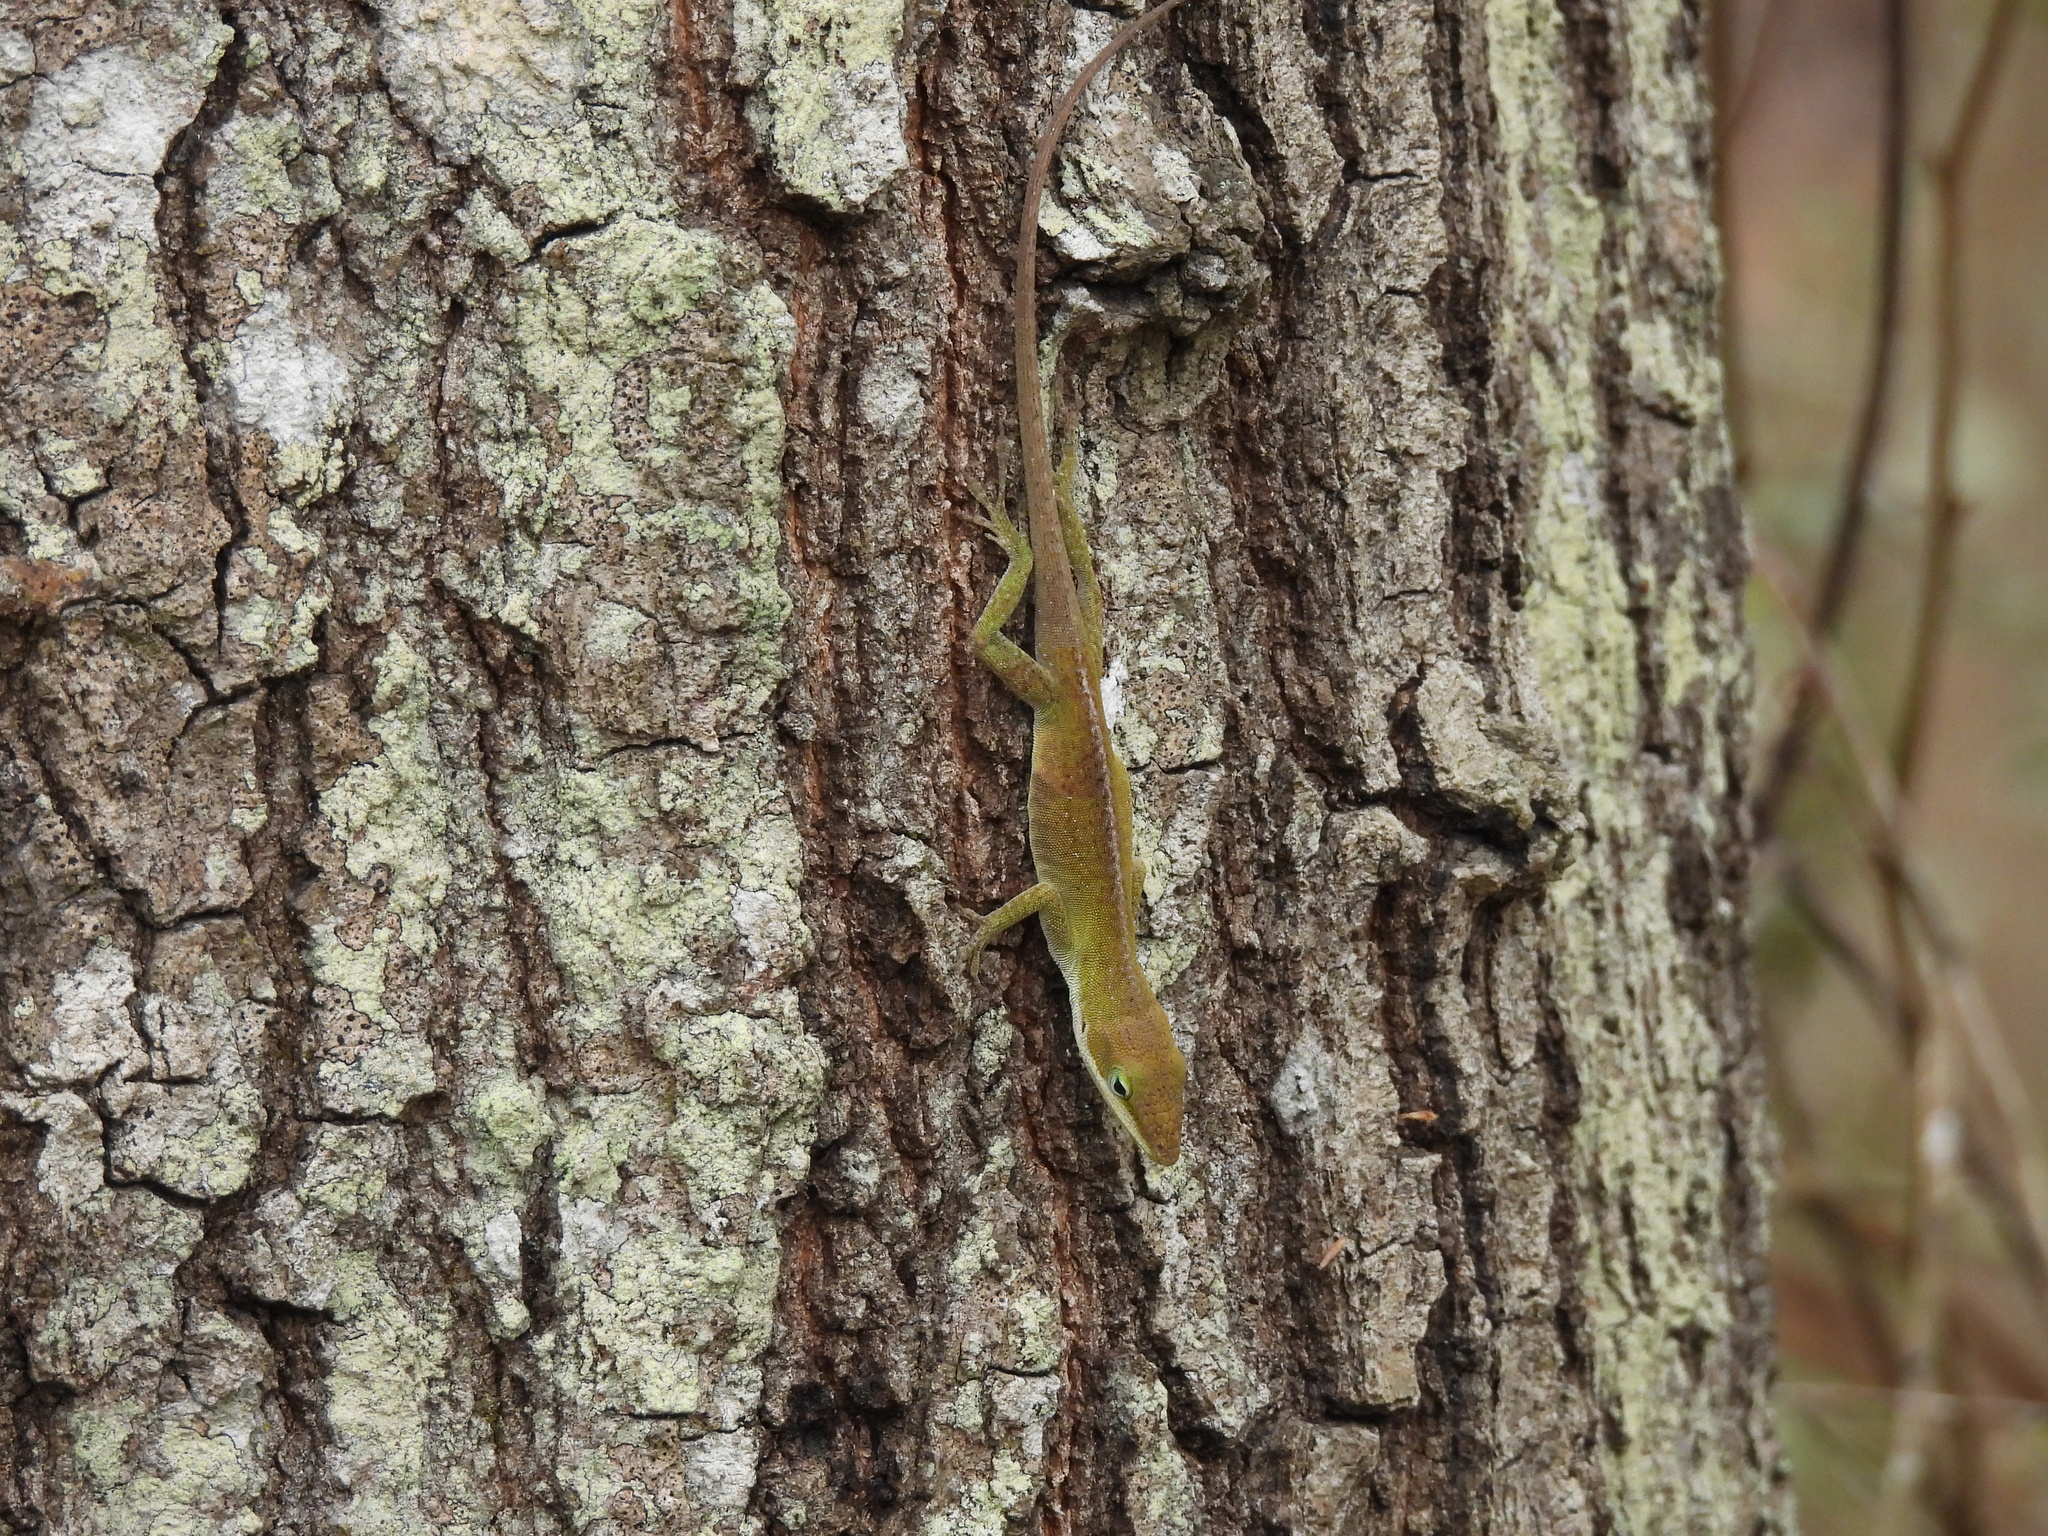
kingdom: Animalia
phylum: Chordata
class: Squamata
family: Dactyloidae
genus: Anolis
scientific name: Anolis carolinensis
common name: Green anole
